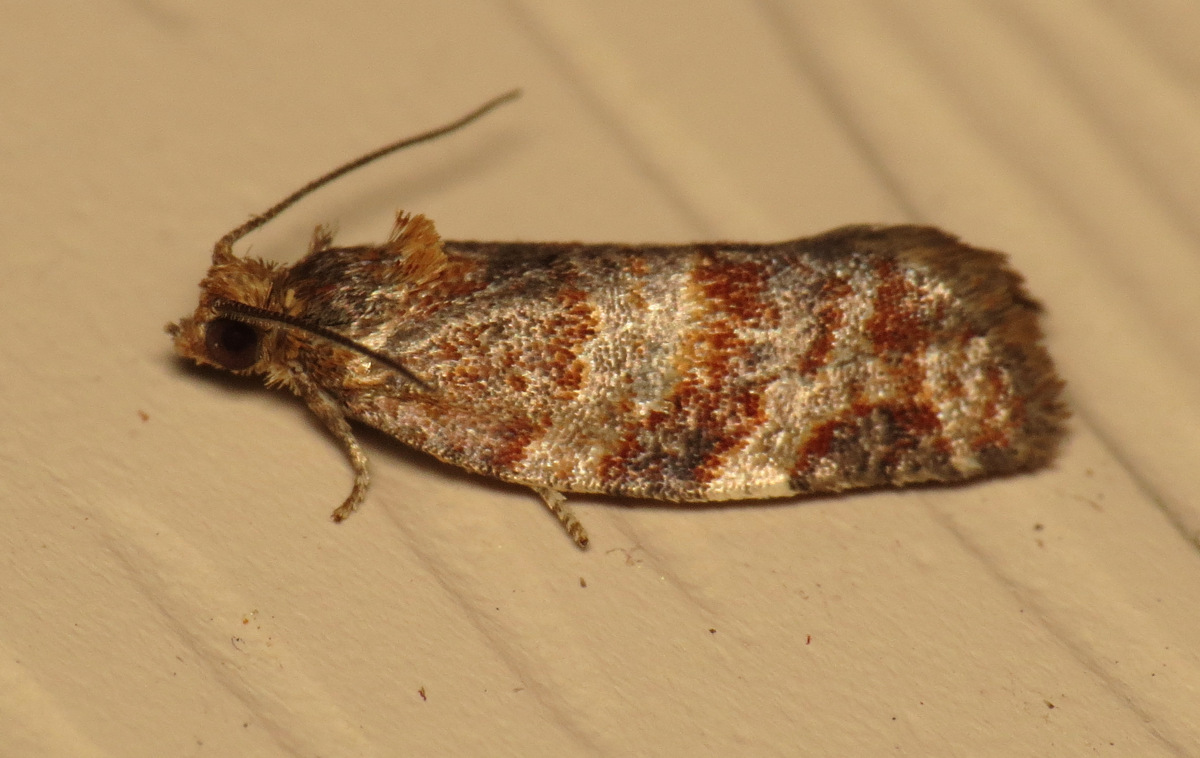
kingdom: Animalia
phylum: Arthropoda
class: Insecta
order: Lepidoptera
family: Tortricidae
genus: Argyrotaenia
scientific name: Argyrotaenia pinatubana
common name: Pine tube moth
